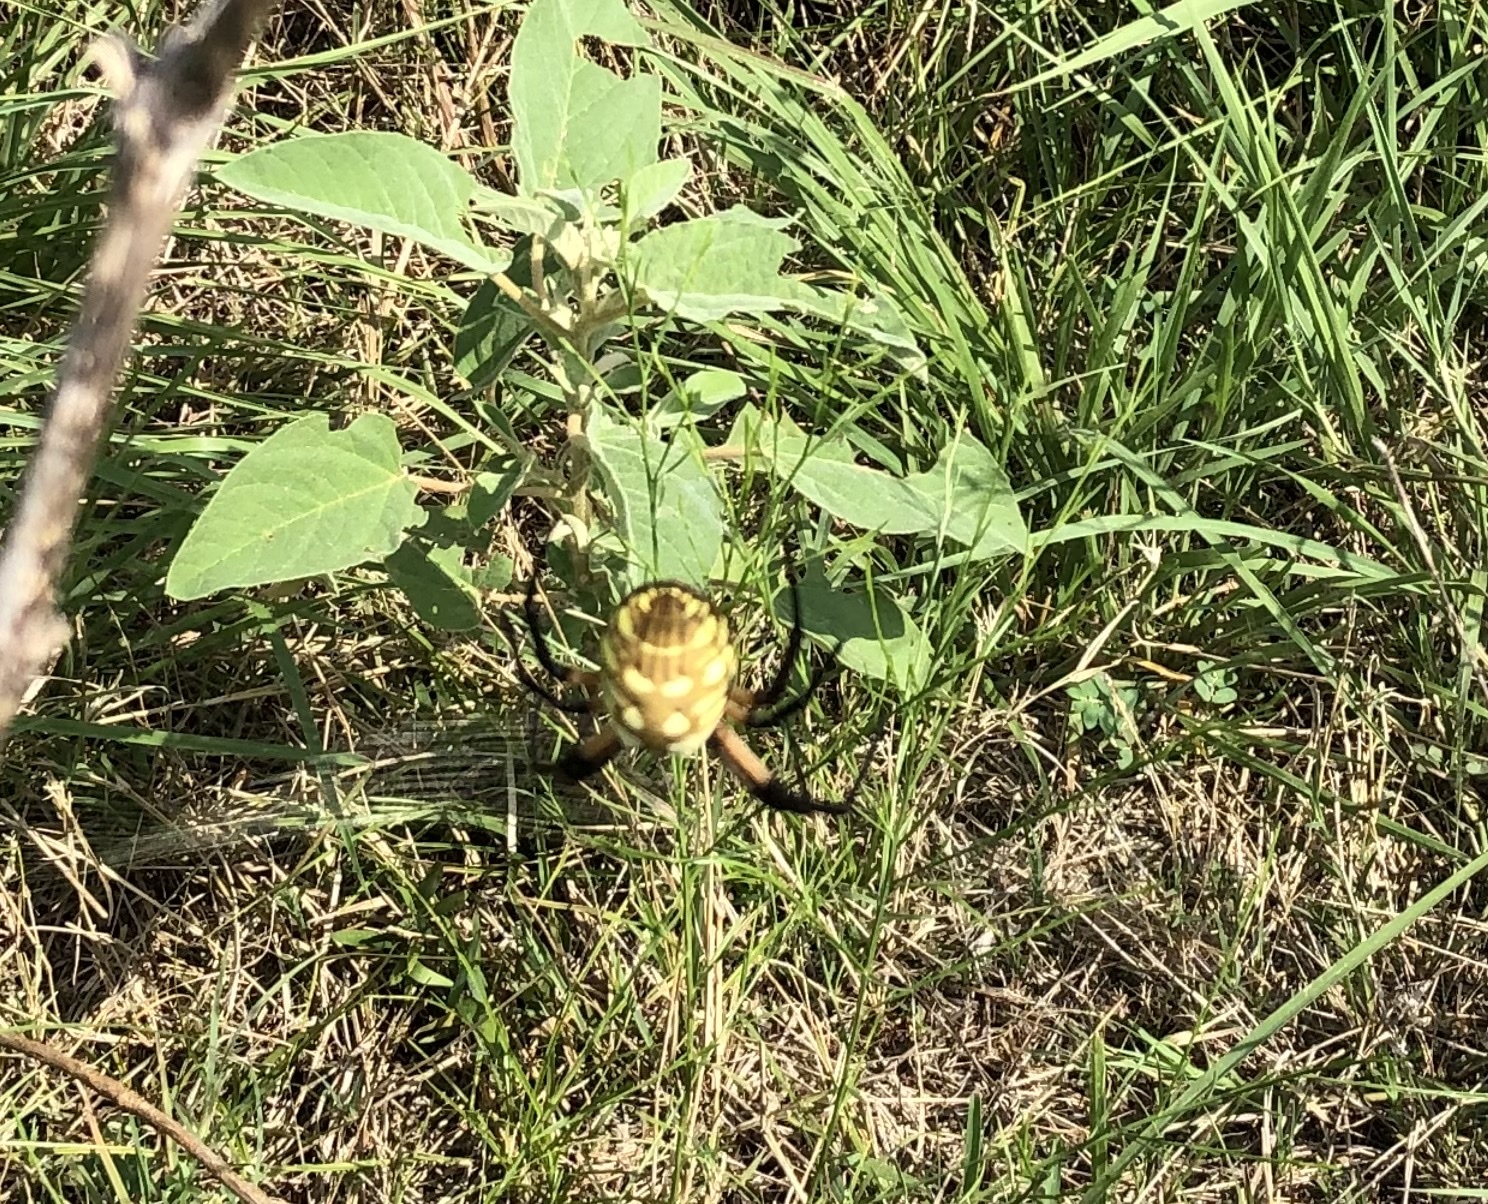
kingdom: Animalia
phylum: Arthropoda
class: Arachnida
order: Araneae
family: Araneidae
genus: Argiope
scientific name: Argiope aurantia
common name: Orb weavers
